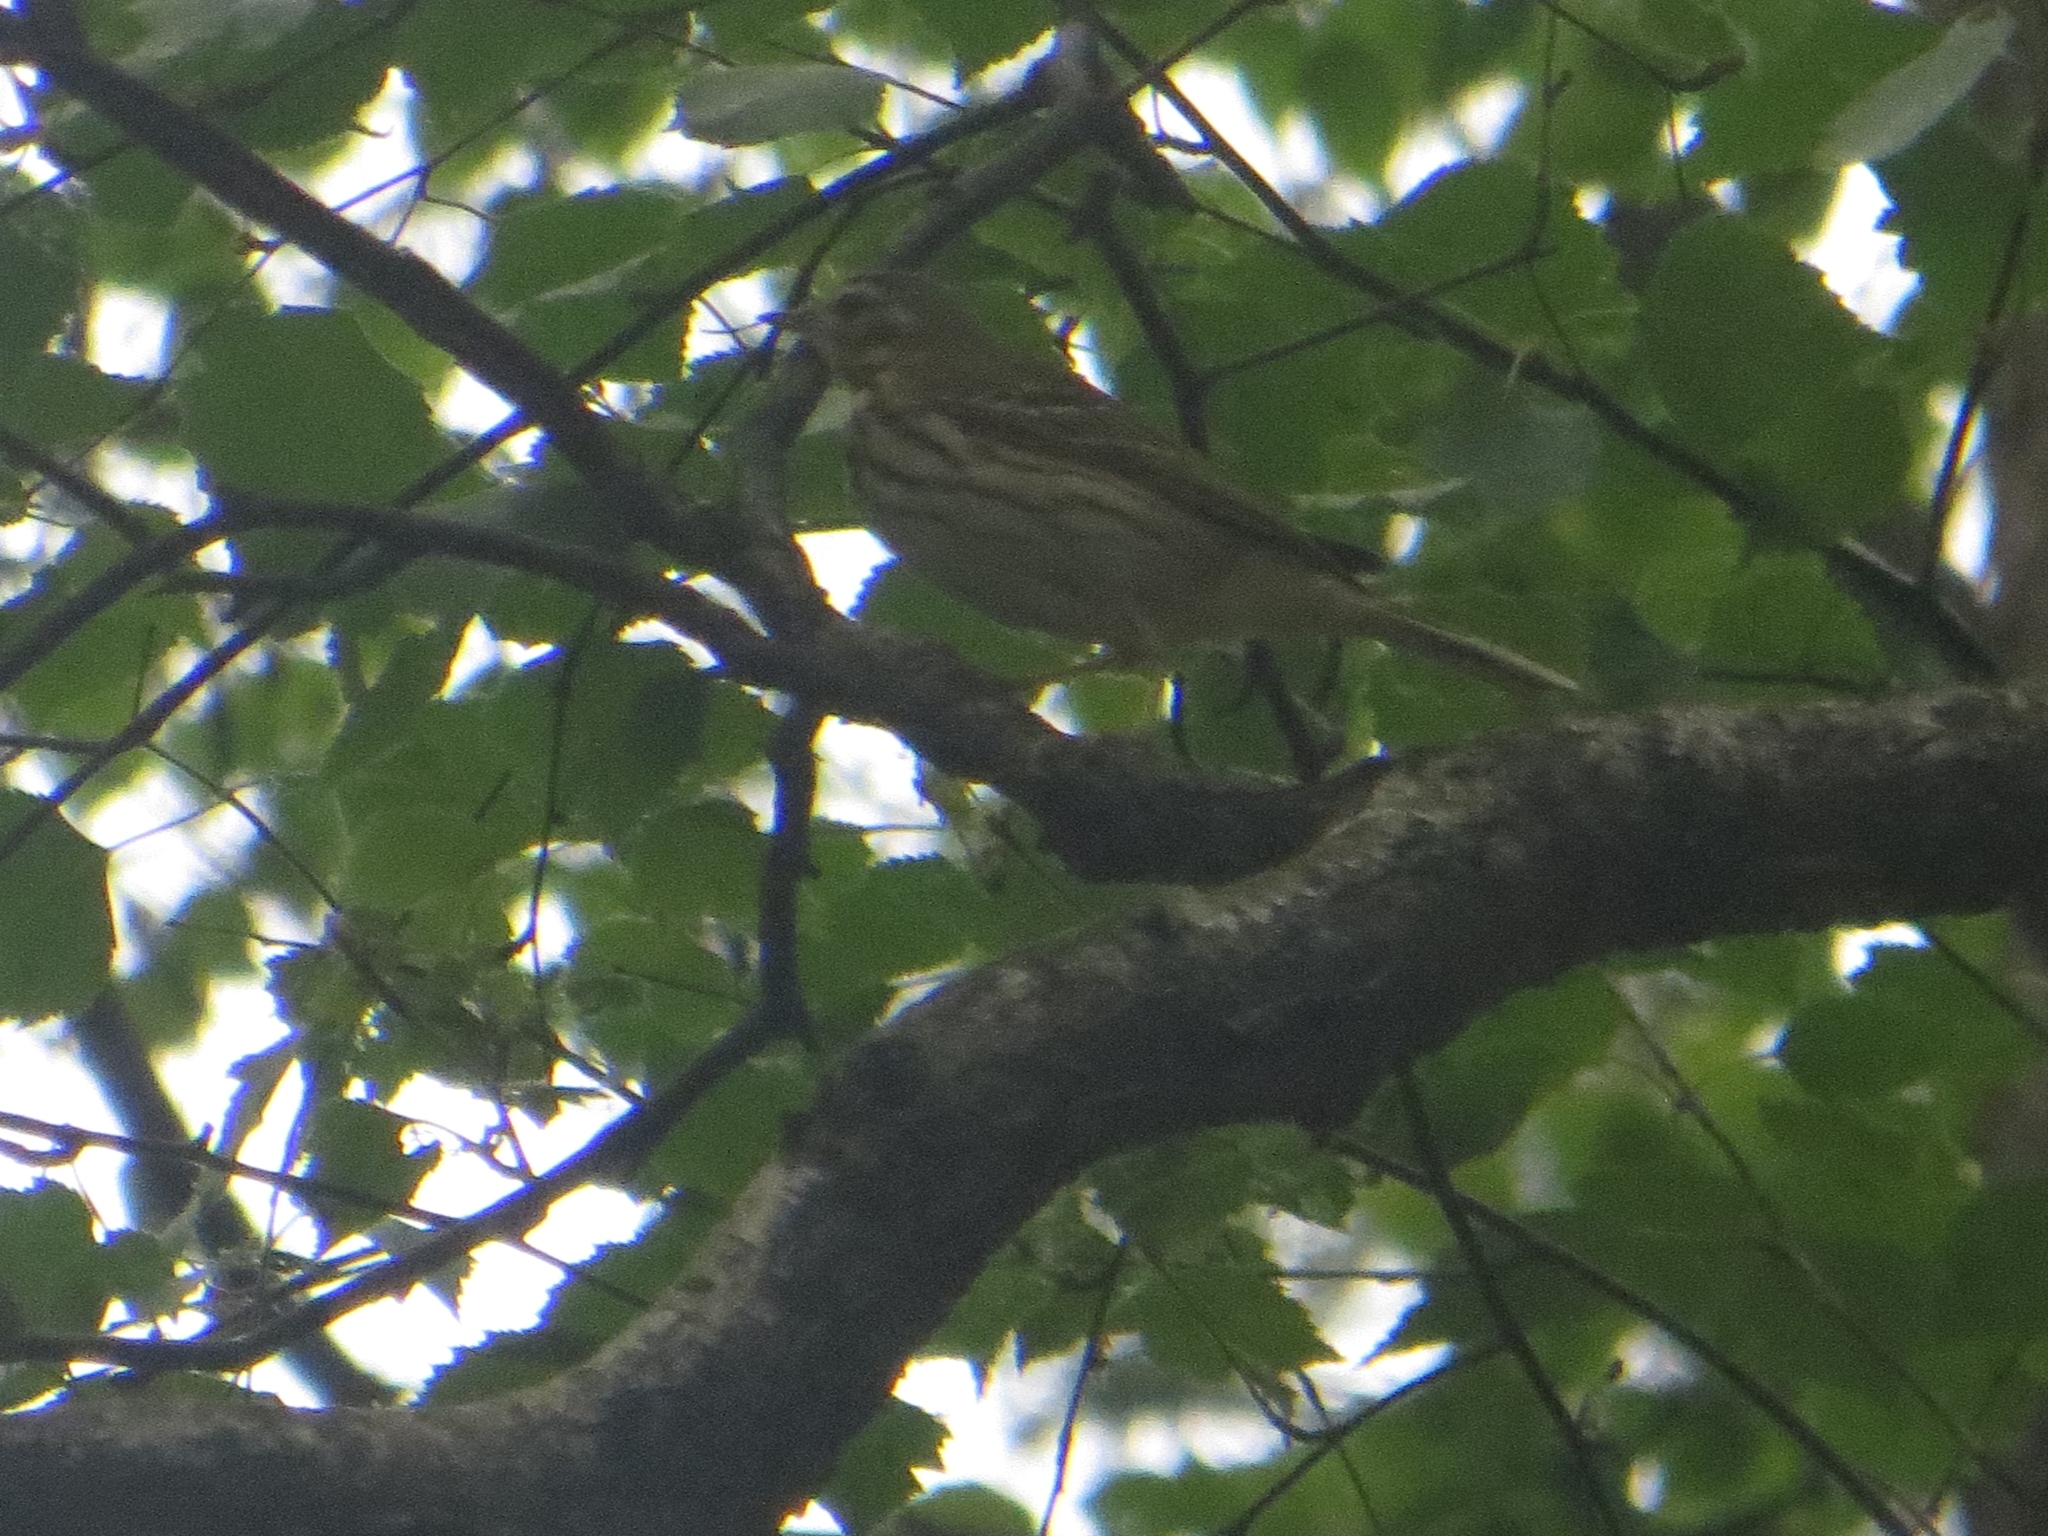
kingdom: Animalia
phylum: Chordata
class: Aves
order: Passeriformes
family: Motacillidae
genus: Anthus
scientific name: Anthus trivialis
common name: Tree pipit
